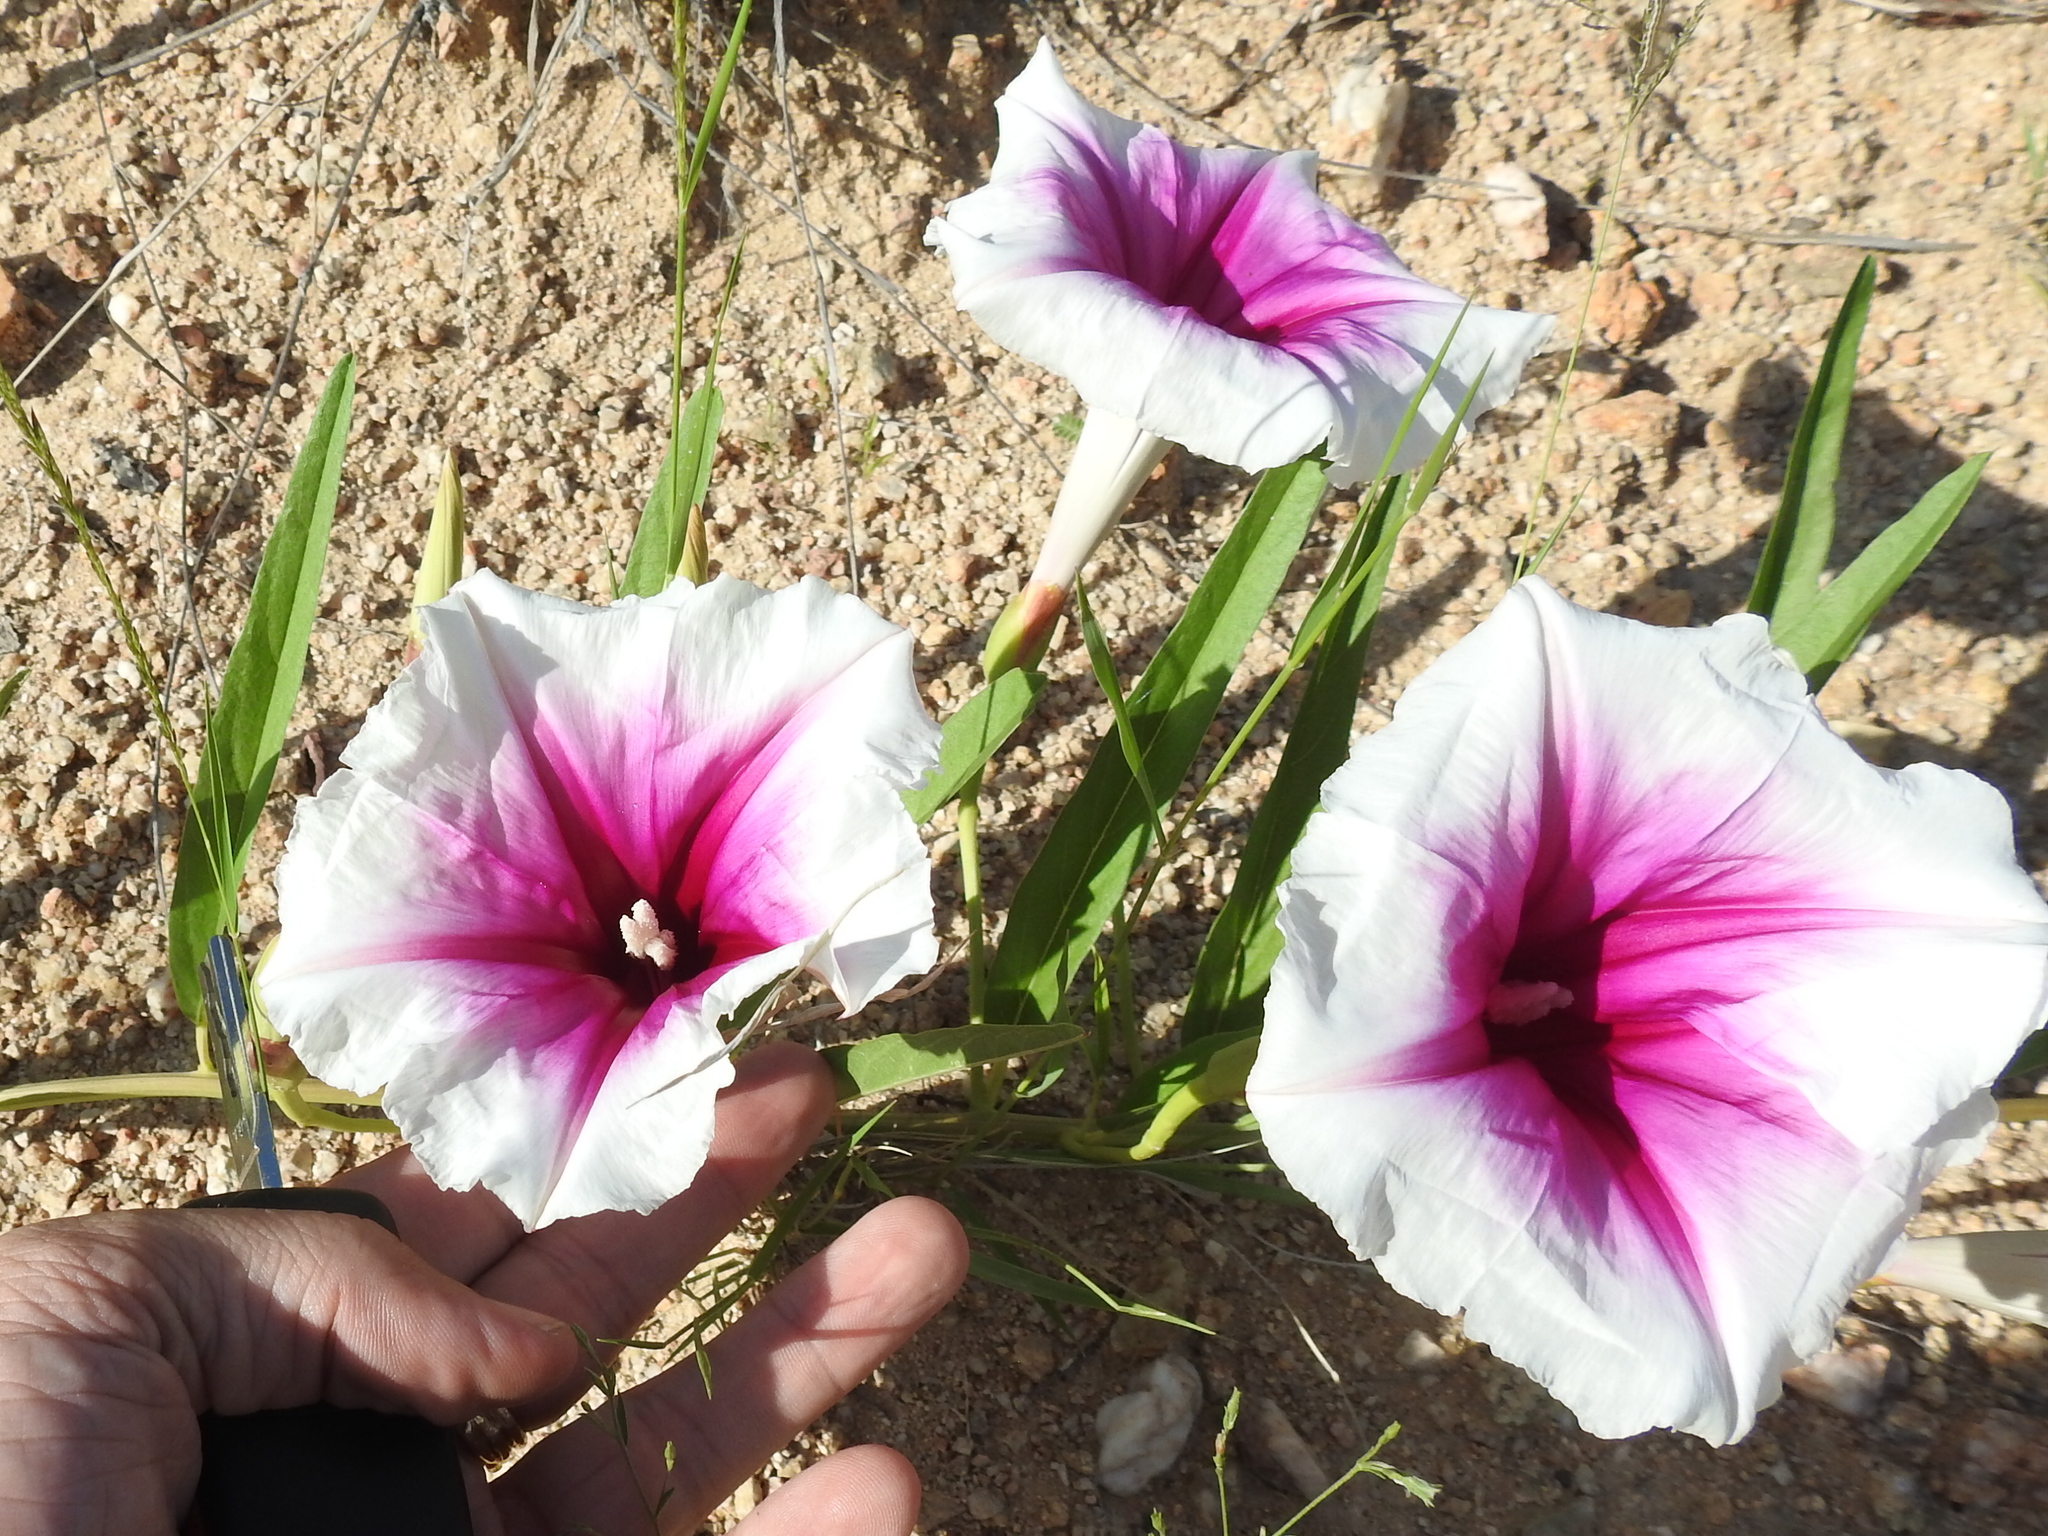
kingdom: Plantae
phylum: Tracheophyta
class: Magnoliopsida
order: Solanales
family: Convolvulaceae
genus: Ipomoea
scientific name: Ipomoea longifolia
